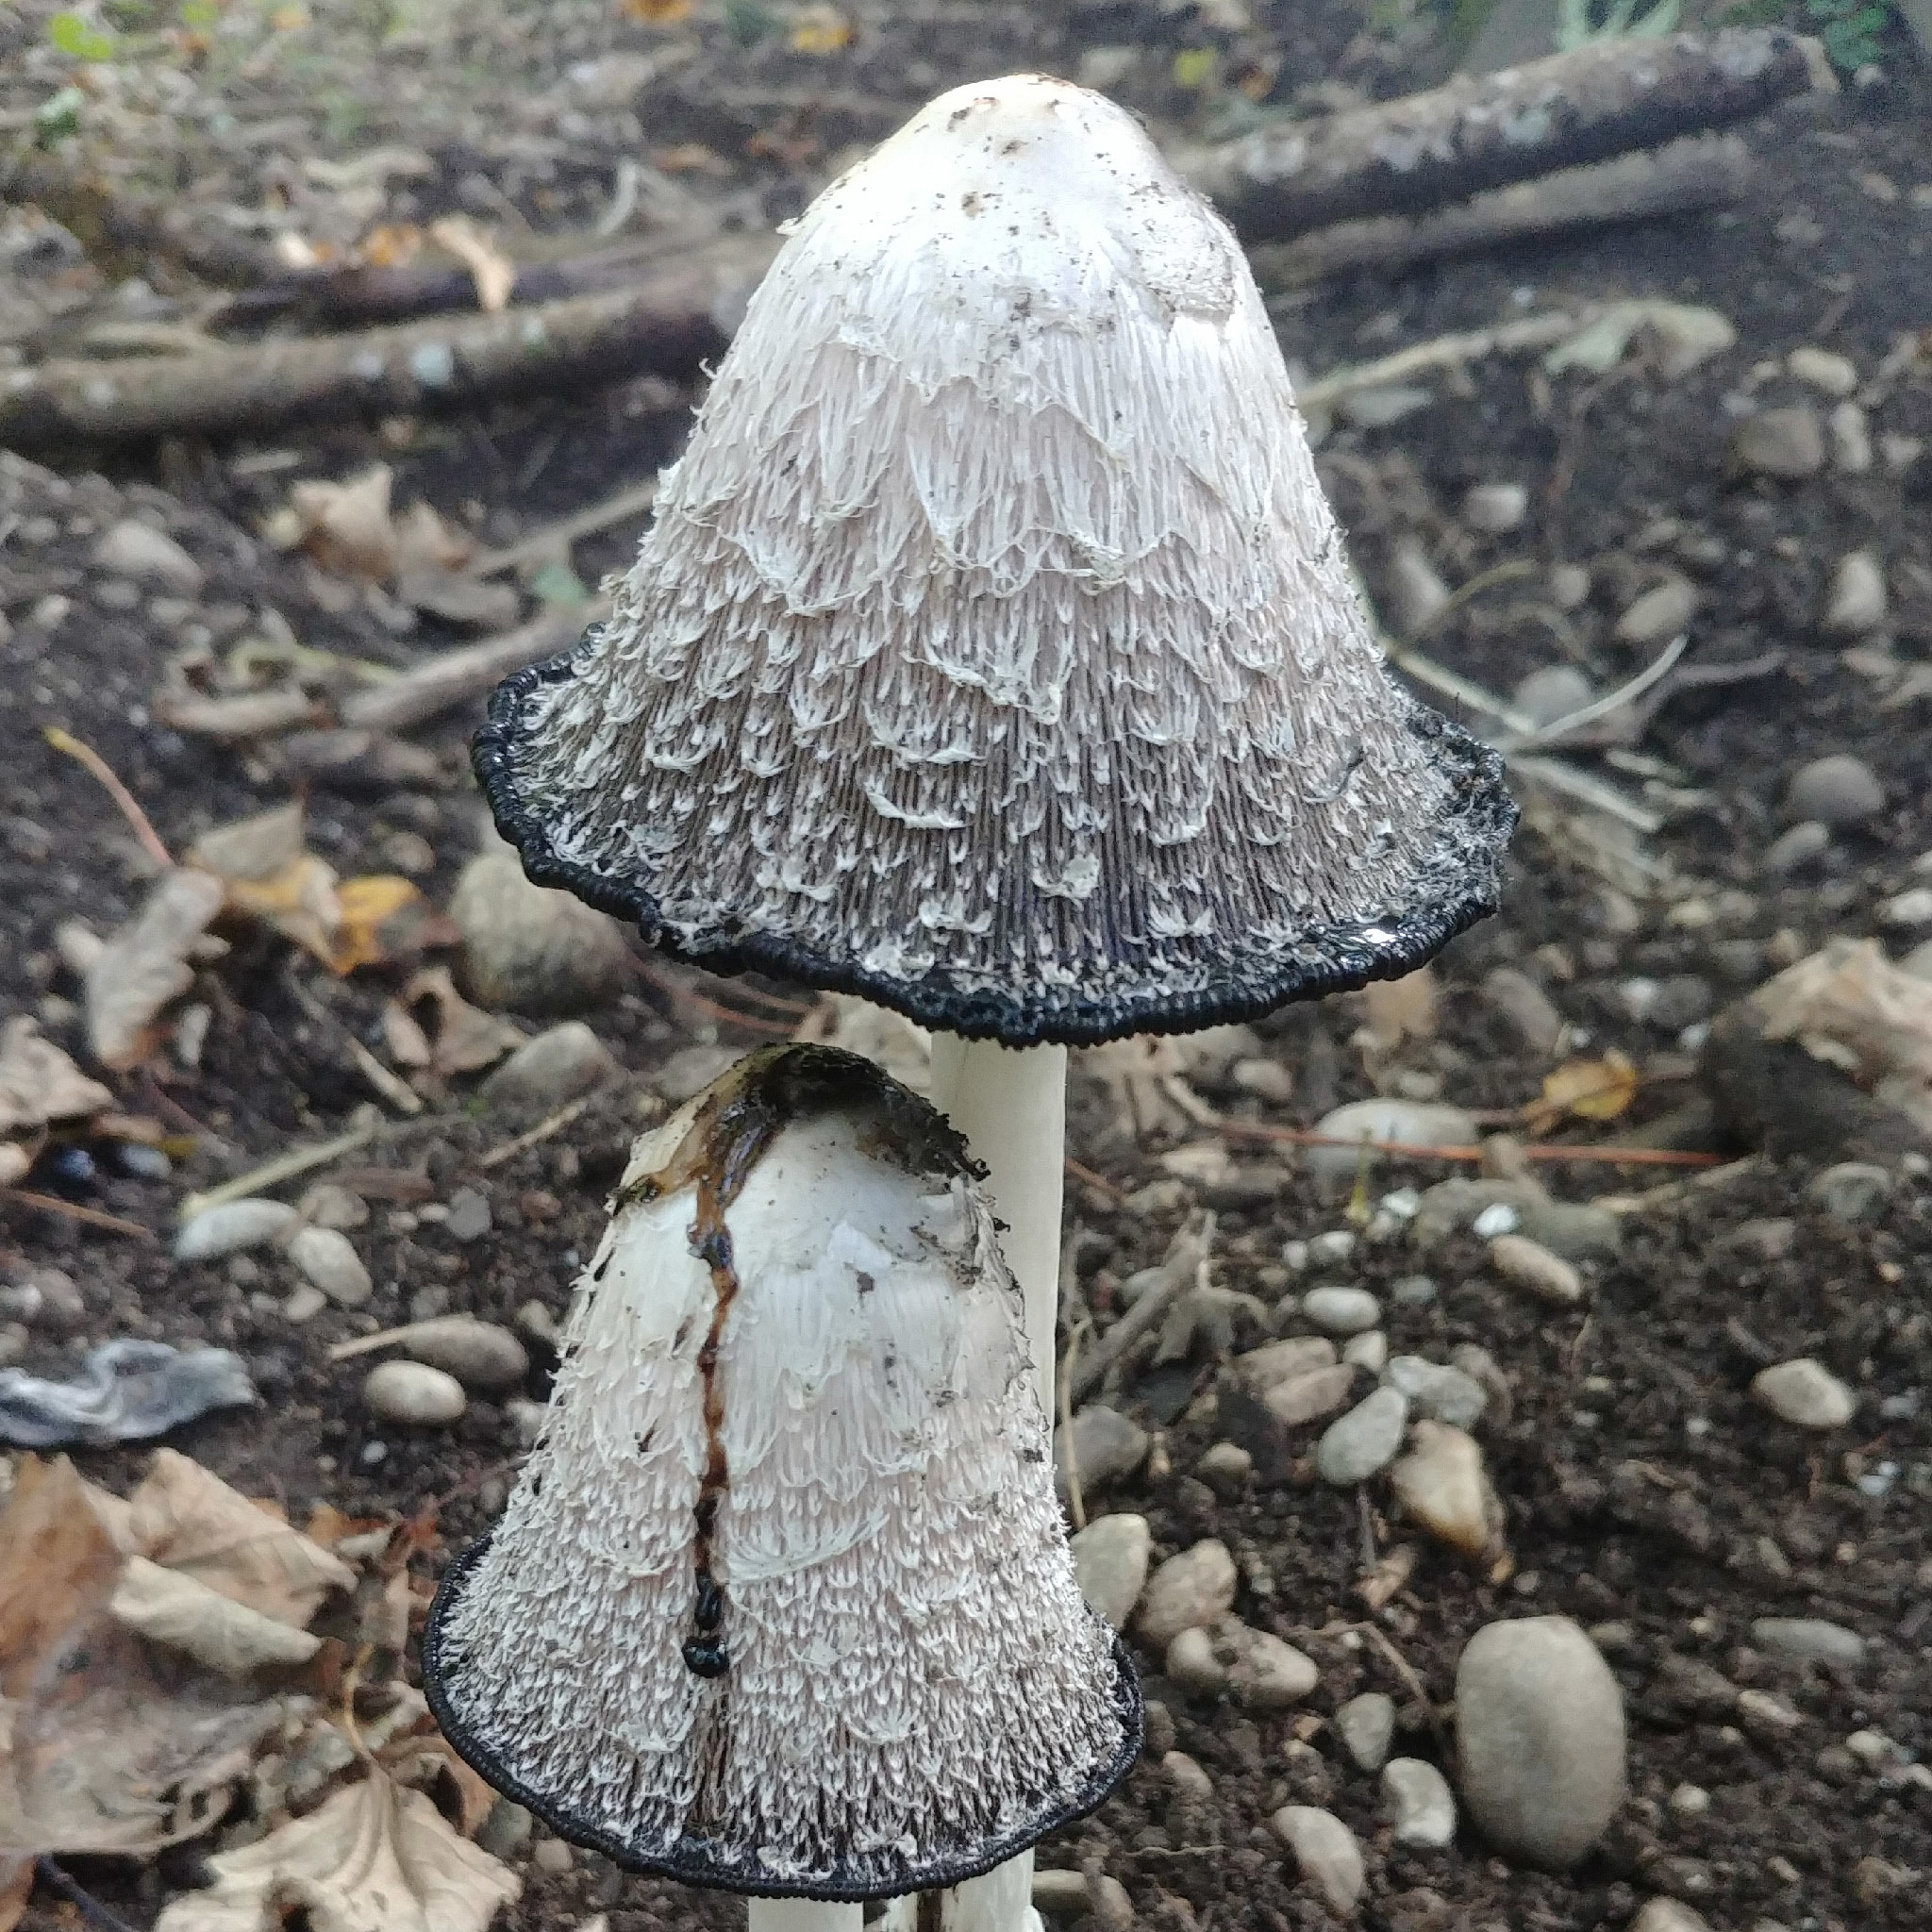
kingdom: Fungi
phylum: Basidiomycota
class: Agaricomycetes
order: Agaricales
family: Agaricaceae
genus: Coprinus
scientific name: Coprinus comatus
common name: Lawyer's wig
